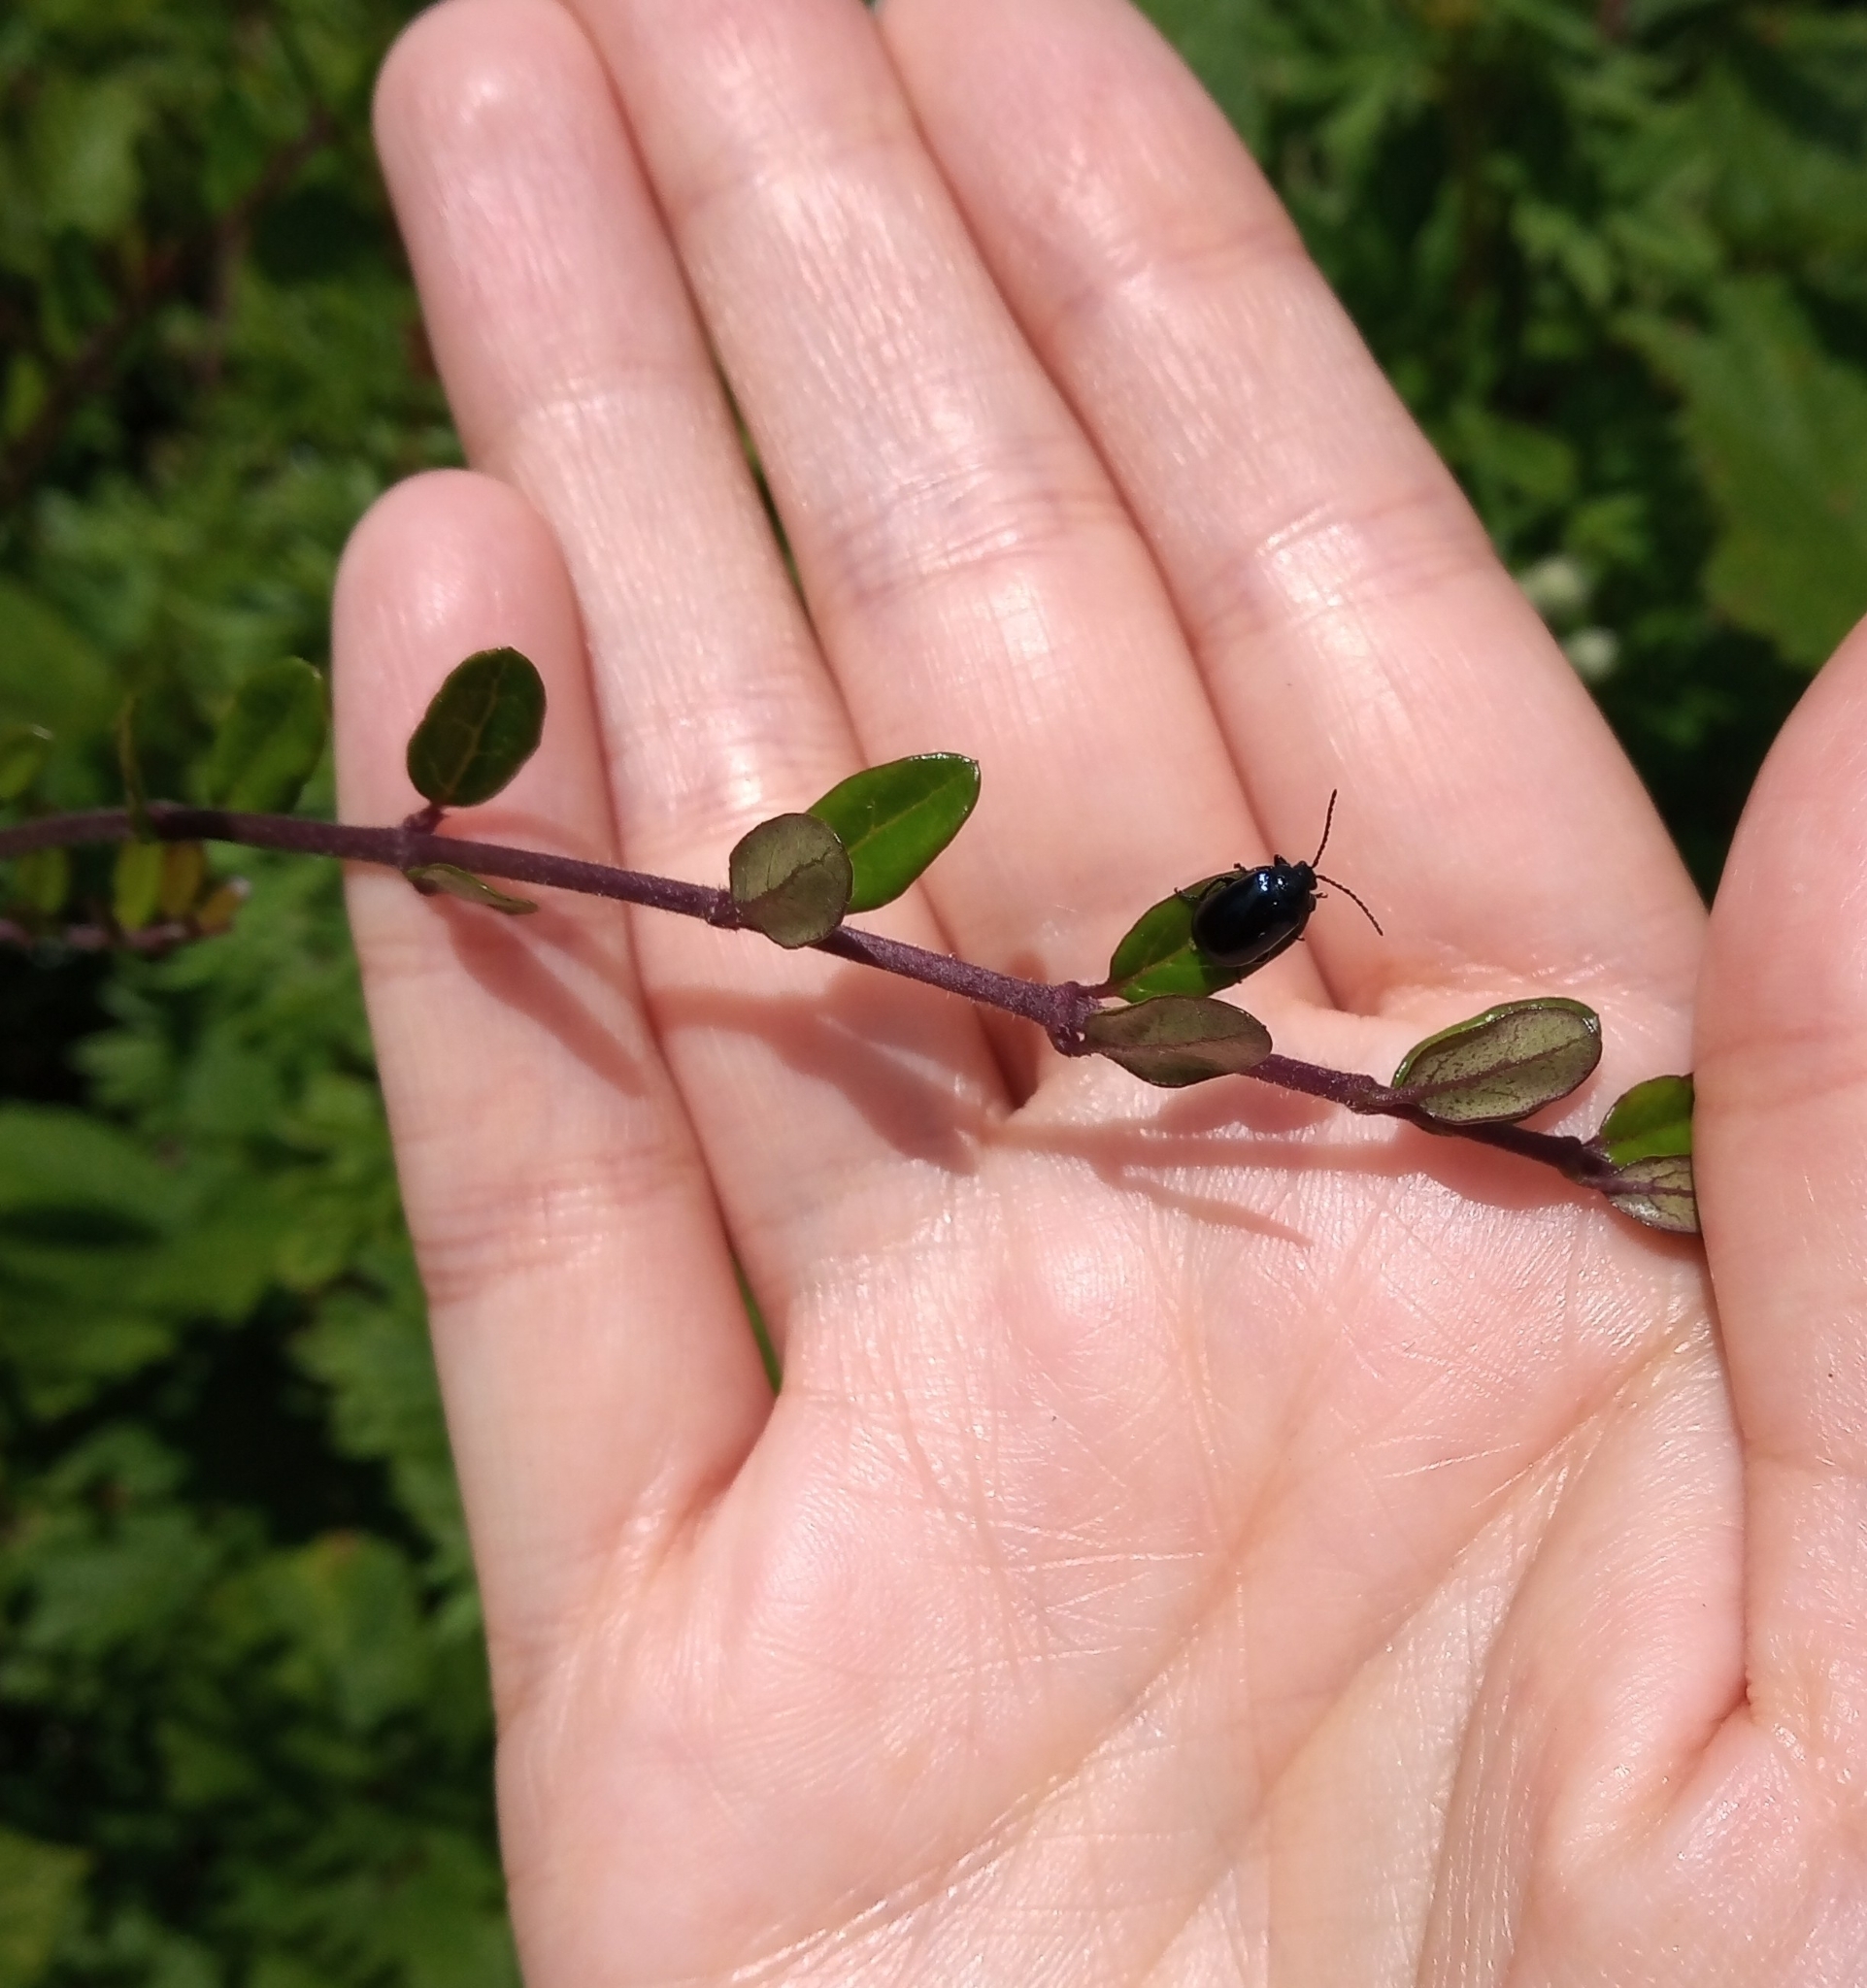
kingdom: Animalia
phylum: Arthropoda
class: Insecta
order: Coleoptera
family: Chrysomelidae
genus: Agelastica
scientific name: Agelastica alni
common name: Alder leaf beetle
